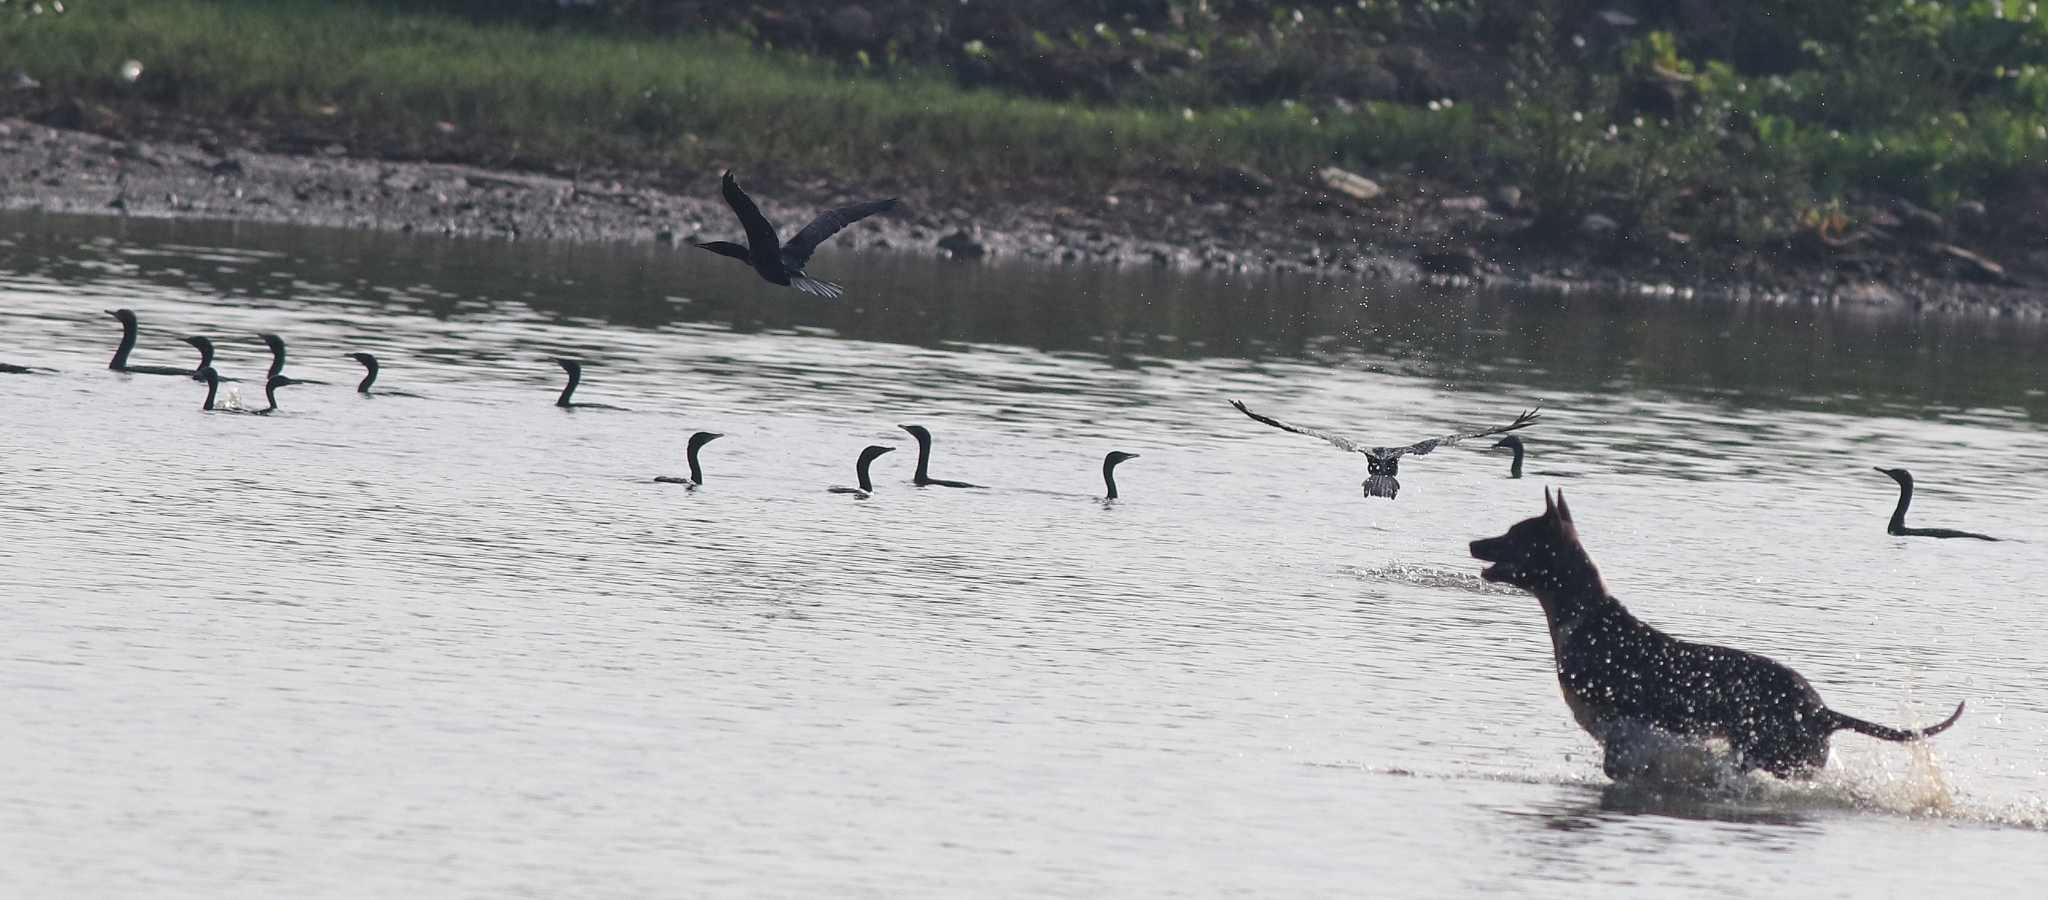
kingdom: Animalia
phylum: Chordata
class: Aves
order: Suliformes
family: Phalacrocoracidae
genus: Phalacrocorax
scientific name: Phalacrocorax fuscicollis
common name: Indian cormorant
